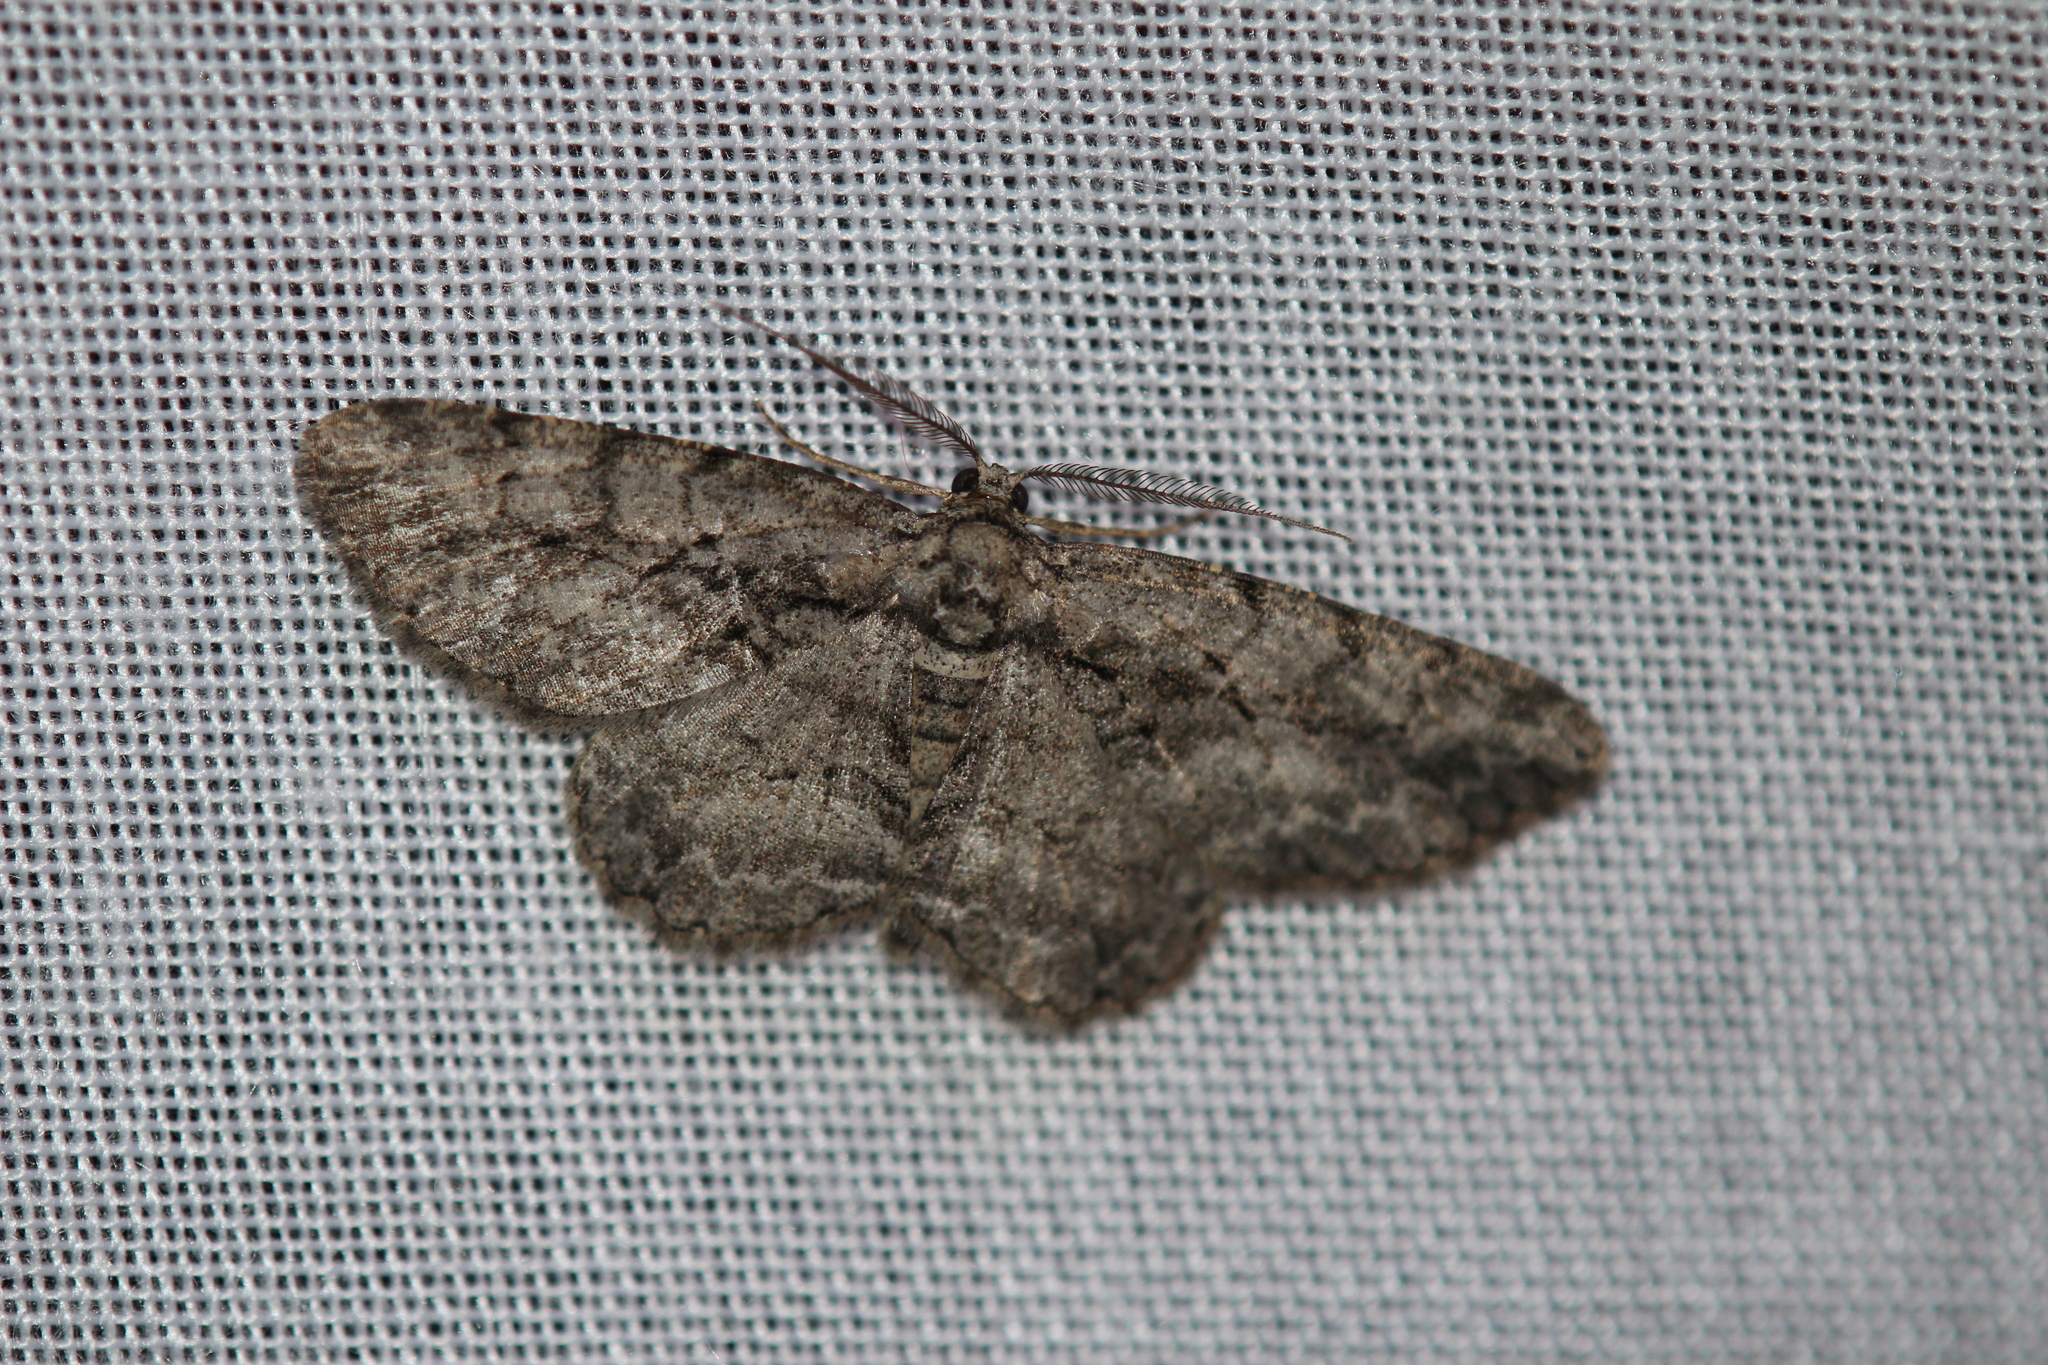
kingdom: Animalia
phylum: Arthropoda
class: Insecta
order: Lepidoptera
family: Geometridae
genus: Anavitrinella
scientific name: Anavitrinella pampinaria
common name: Common gray
